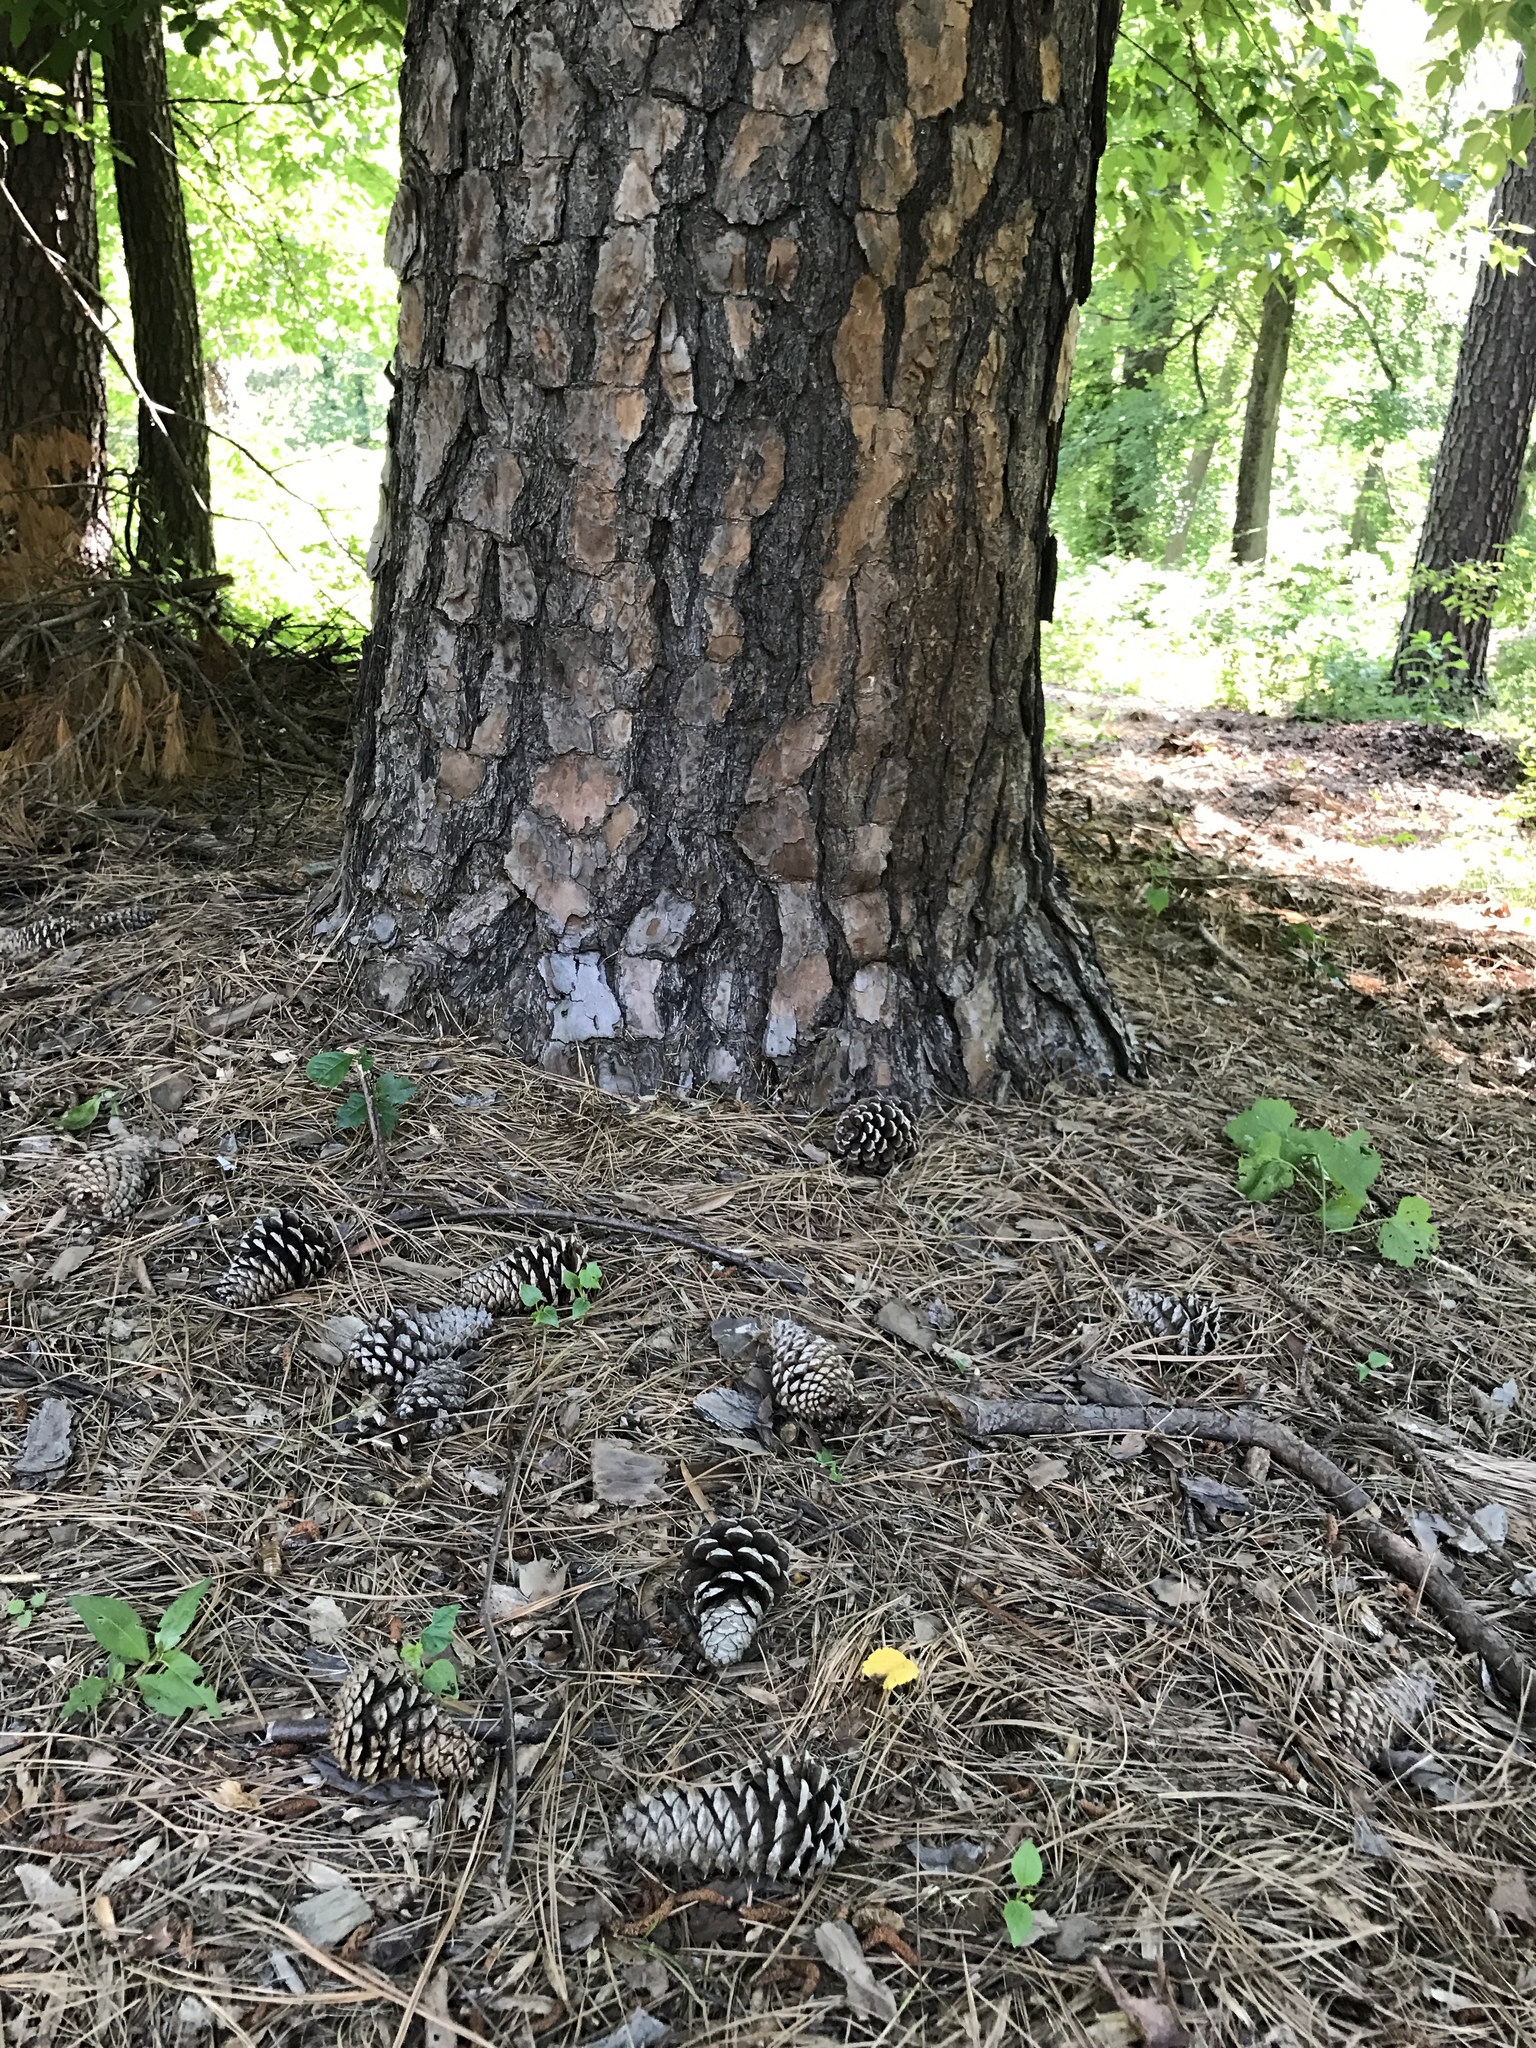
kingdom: Plantae
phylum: Tracheophyta
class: Pinopsida
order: Pinales
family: Pinaceae
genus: Pinus
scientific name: Pinus taeda
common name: Loblolly pine
